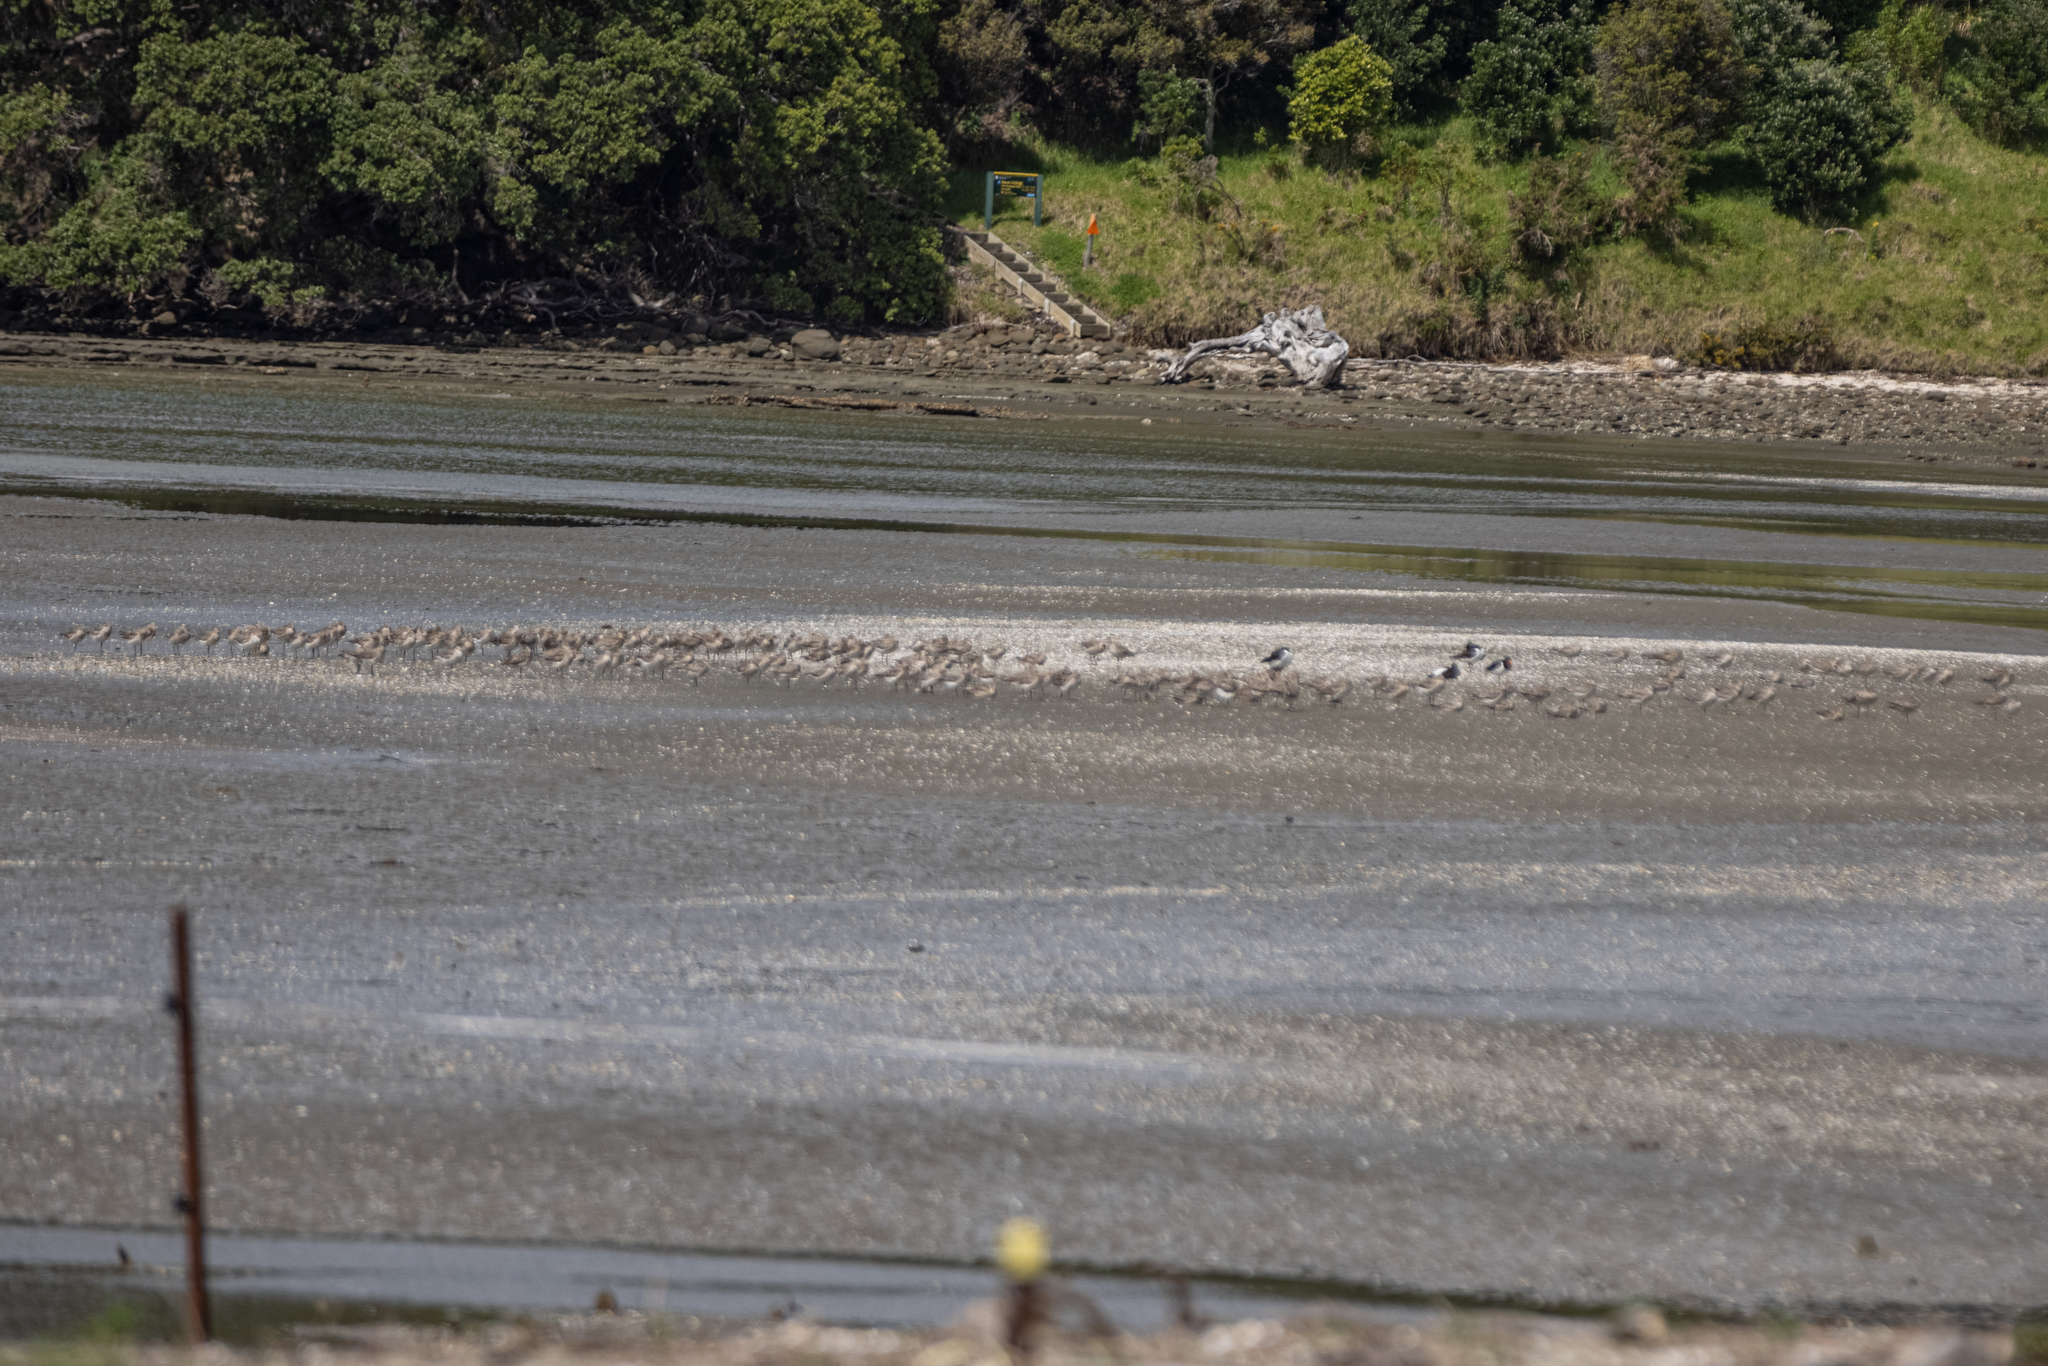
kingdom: Animalia
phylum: Chordata
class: Aves
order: Charadriiformes
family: Scolopacidae
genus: Limosa
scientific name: Limosa lapponica
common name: Bar-tailed godwit
